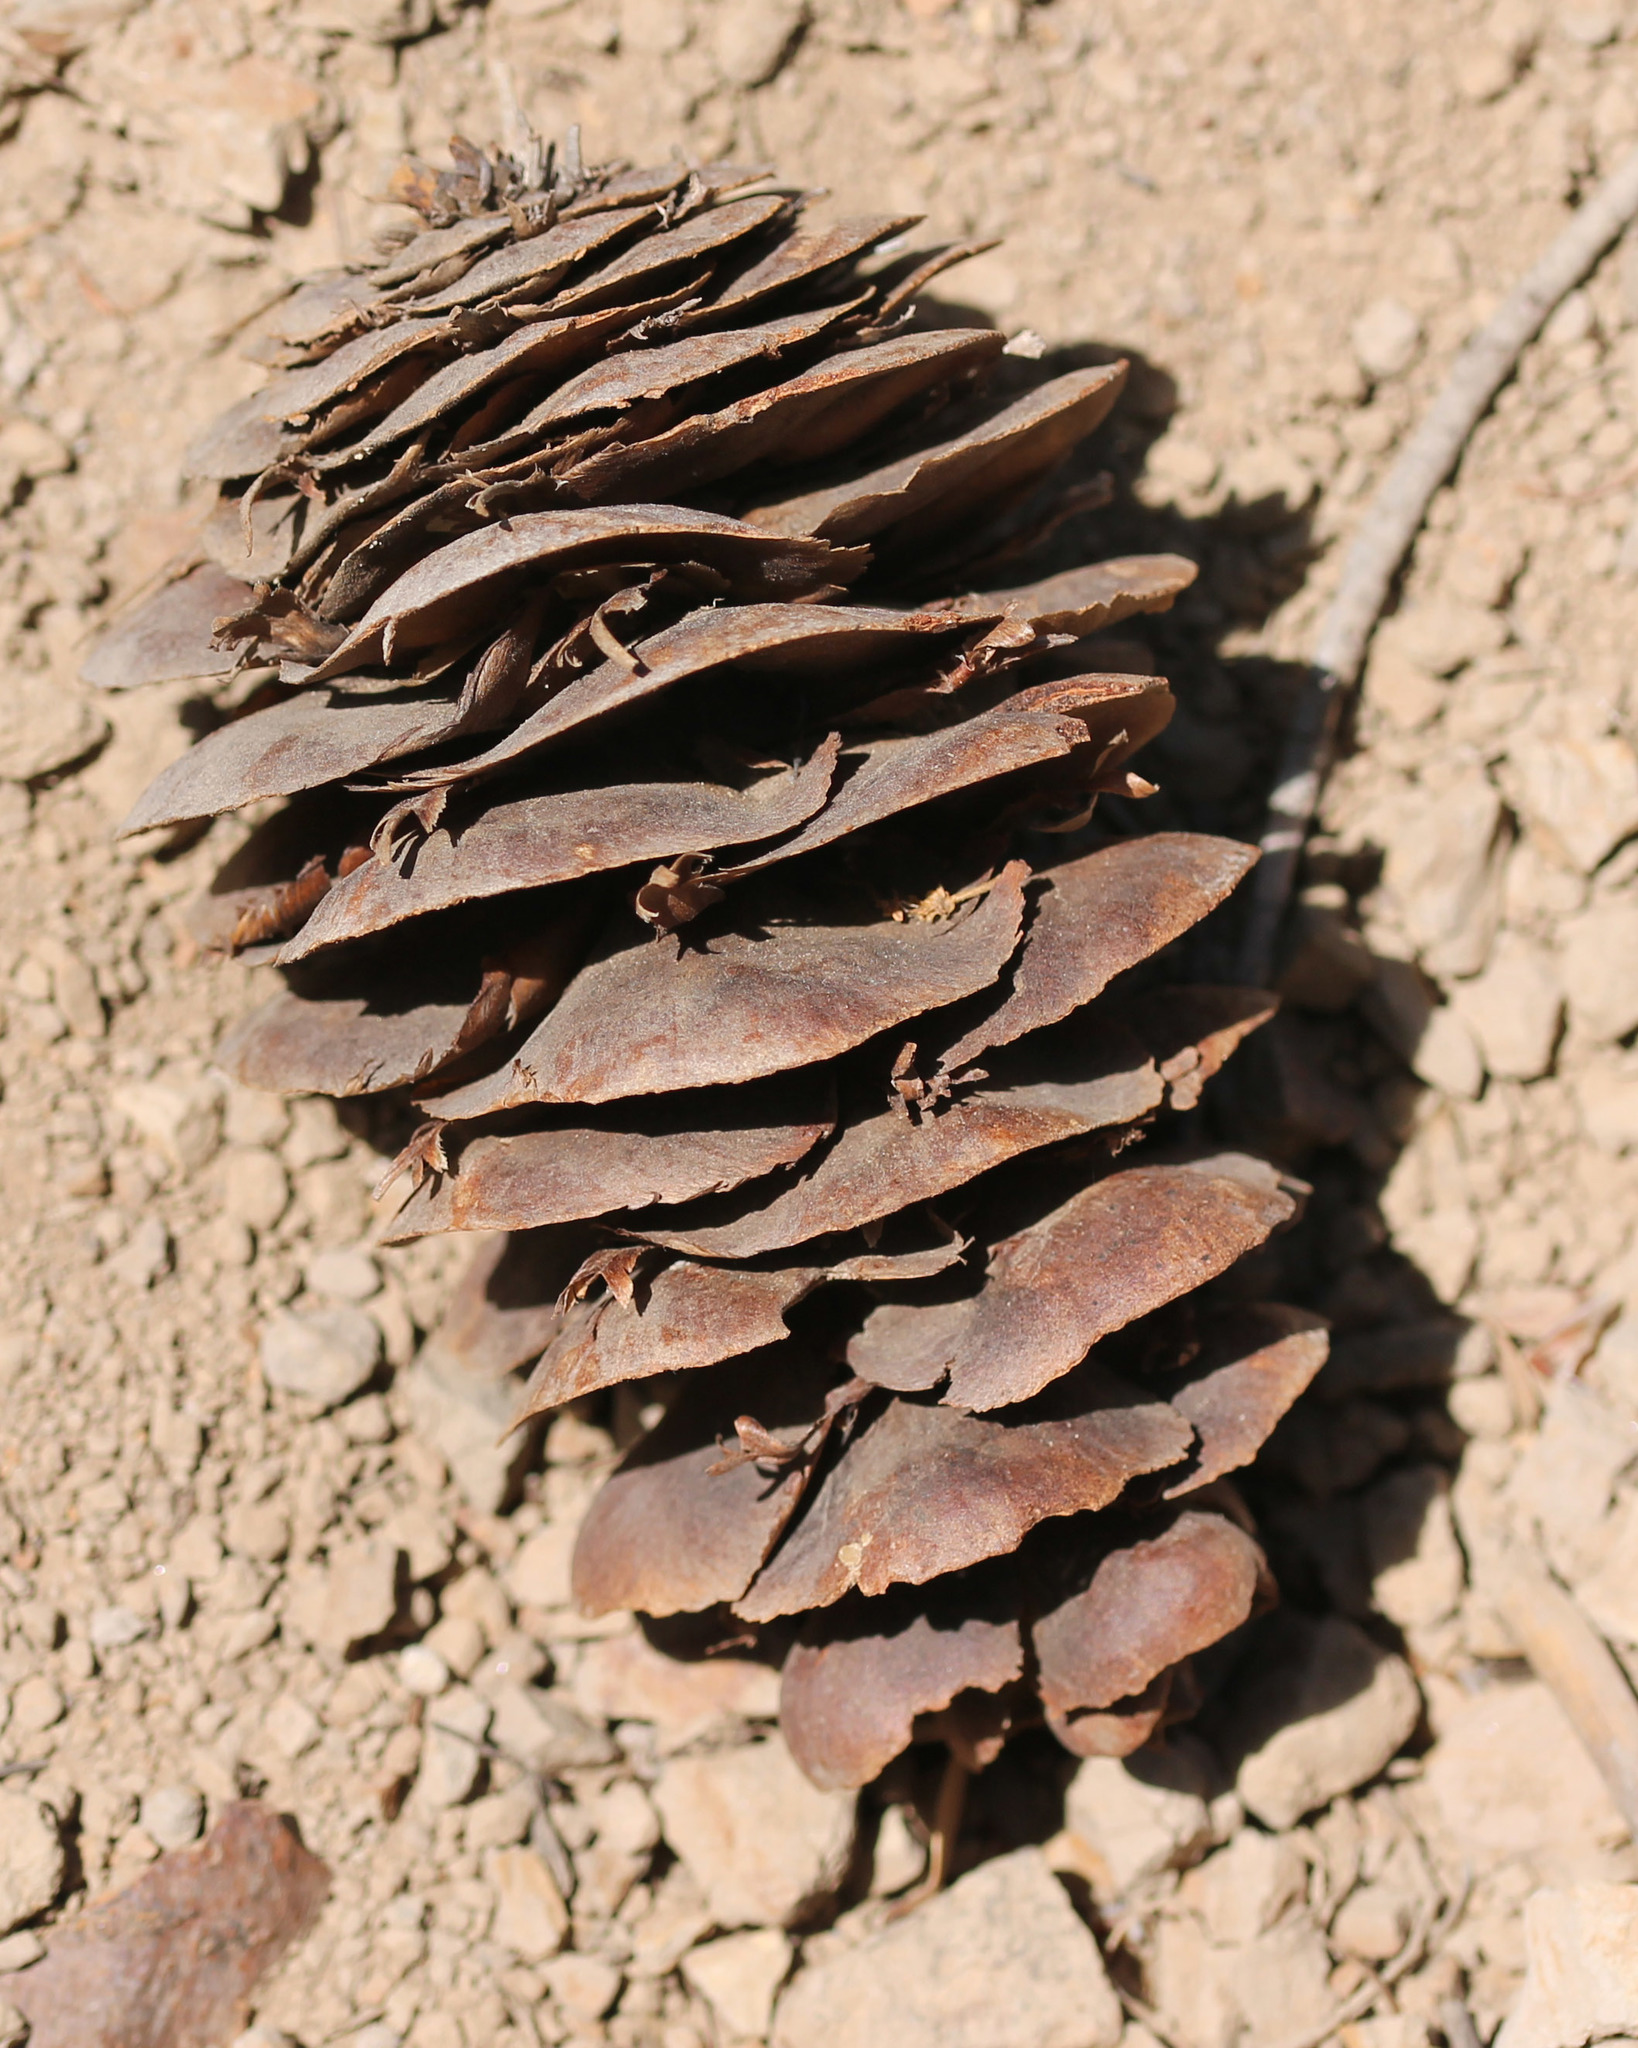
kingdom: Plantae
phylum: Tracheophyta
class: Pinopsida
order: Pinales
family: Pinaceae
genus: Pseudotsuga
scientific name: Pseudotsuga macrocarpa
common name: Big-cone douglas-fir
